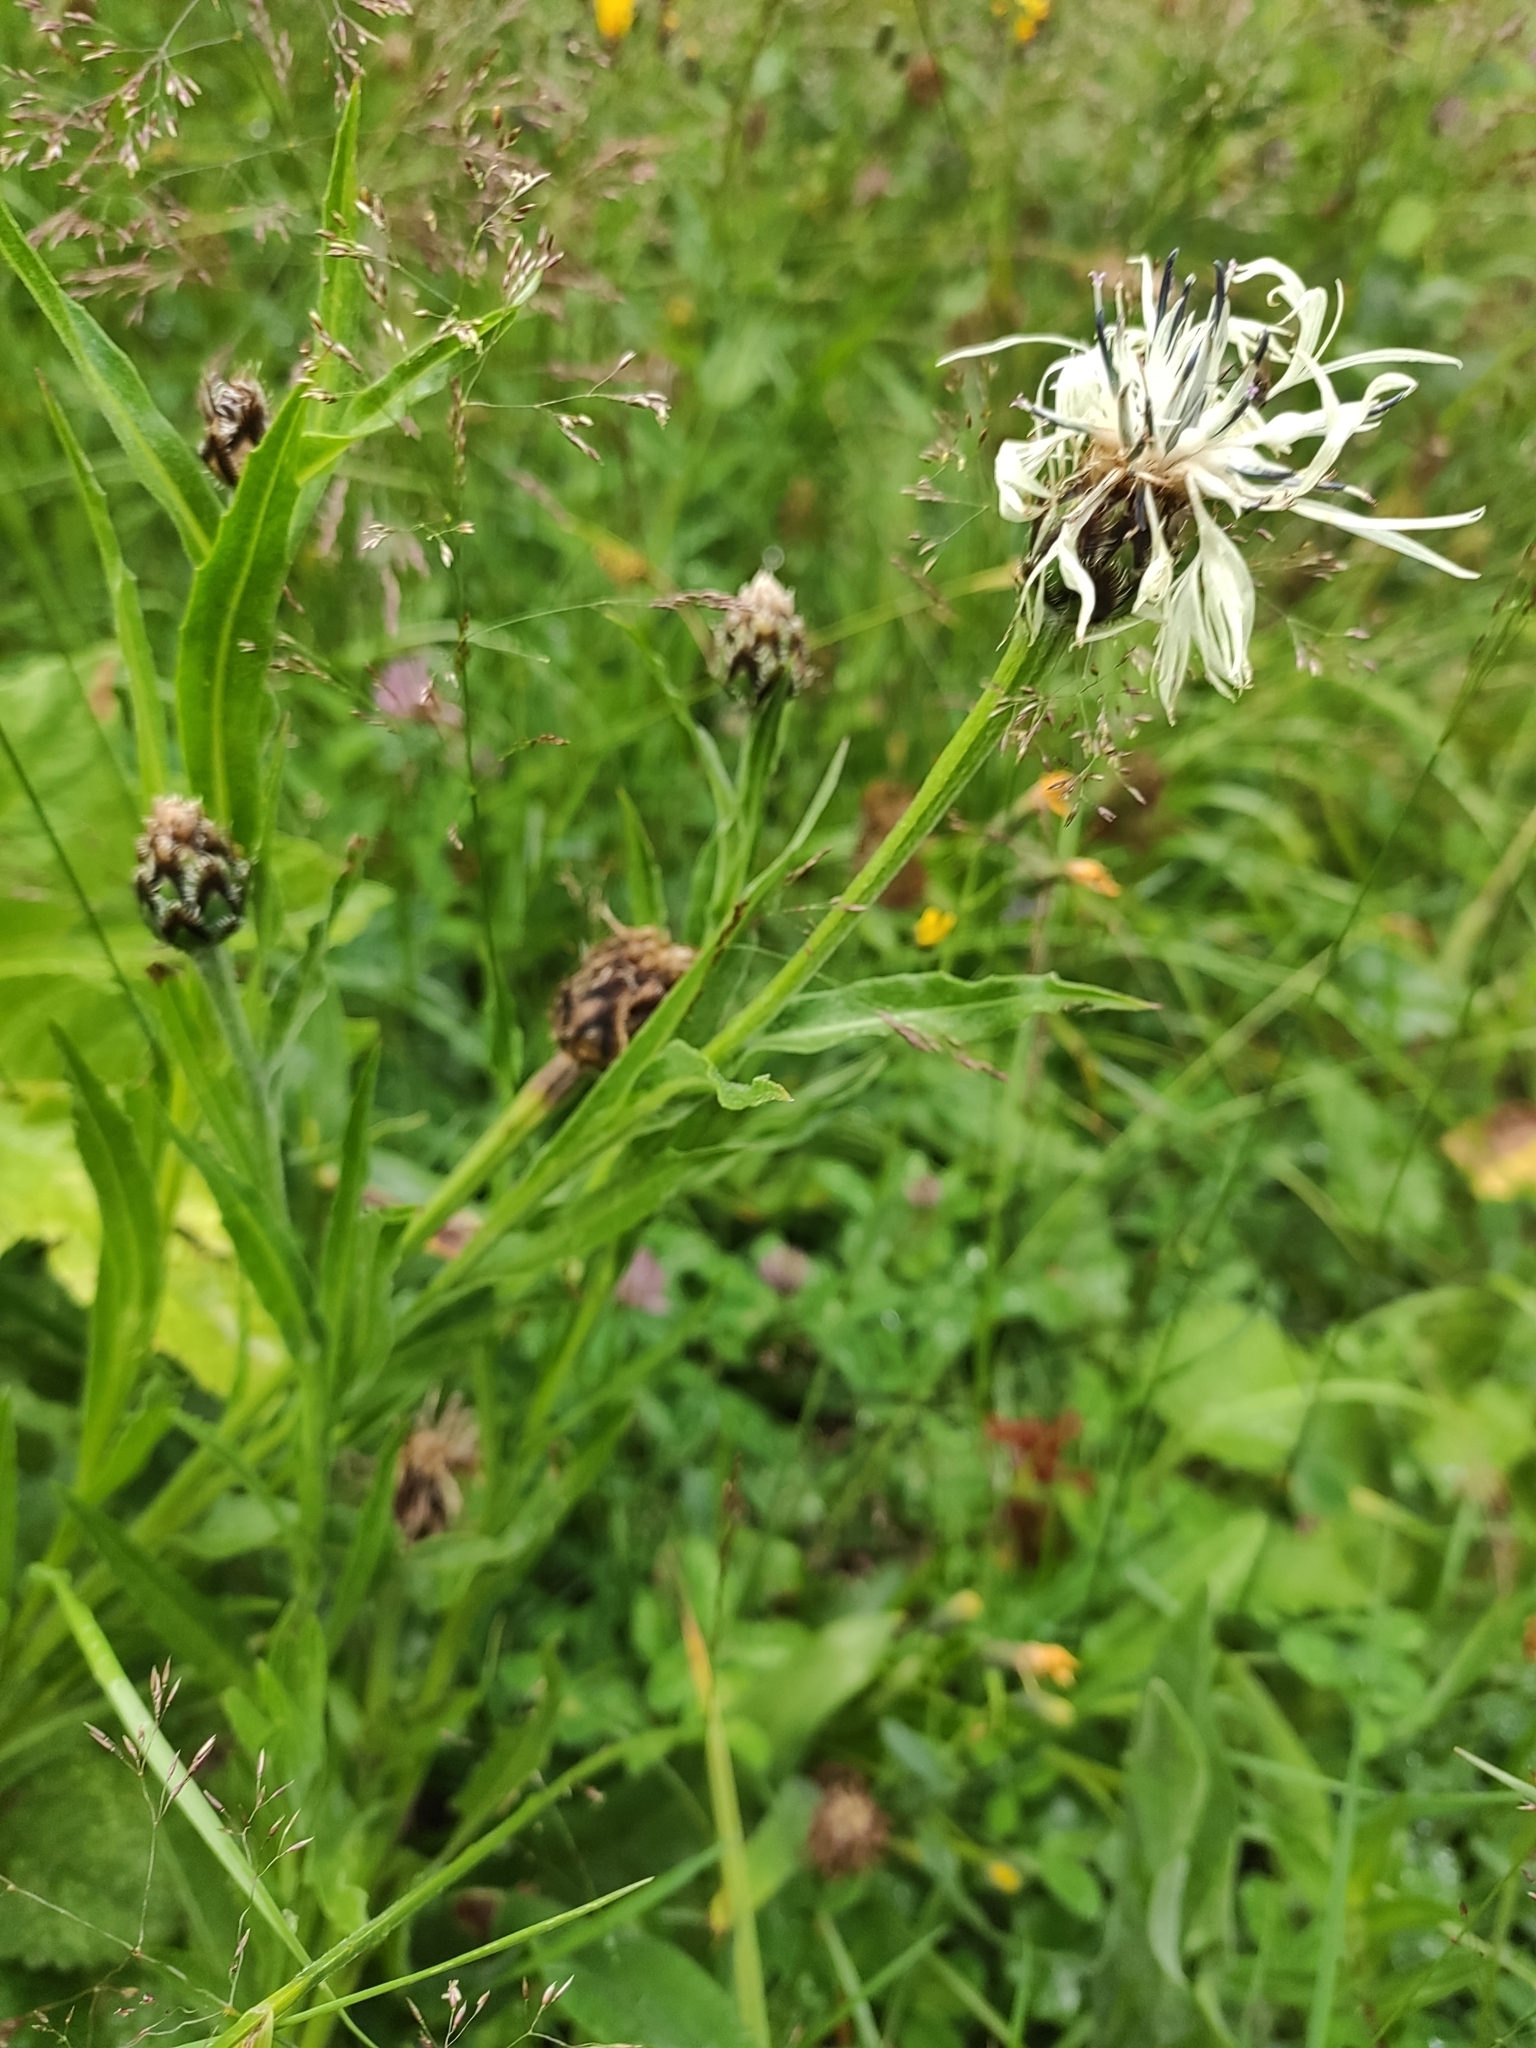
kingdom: Plantae
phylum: Tracheophyta
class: Magnoliopsida
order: Asterales
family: Asteraceae
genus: Centaurea
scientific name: Centaurea cheiranthifolia
